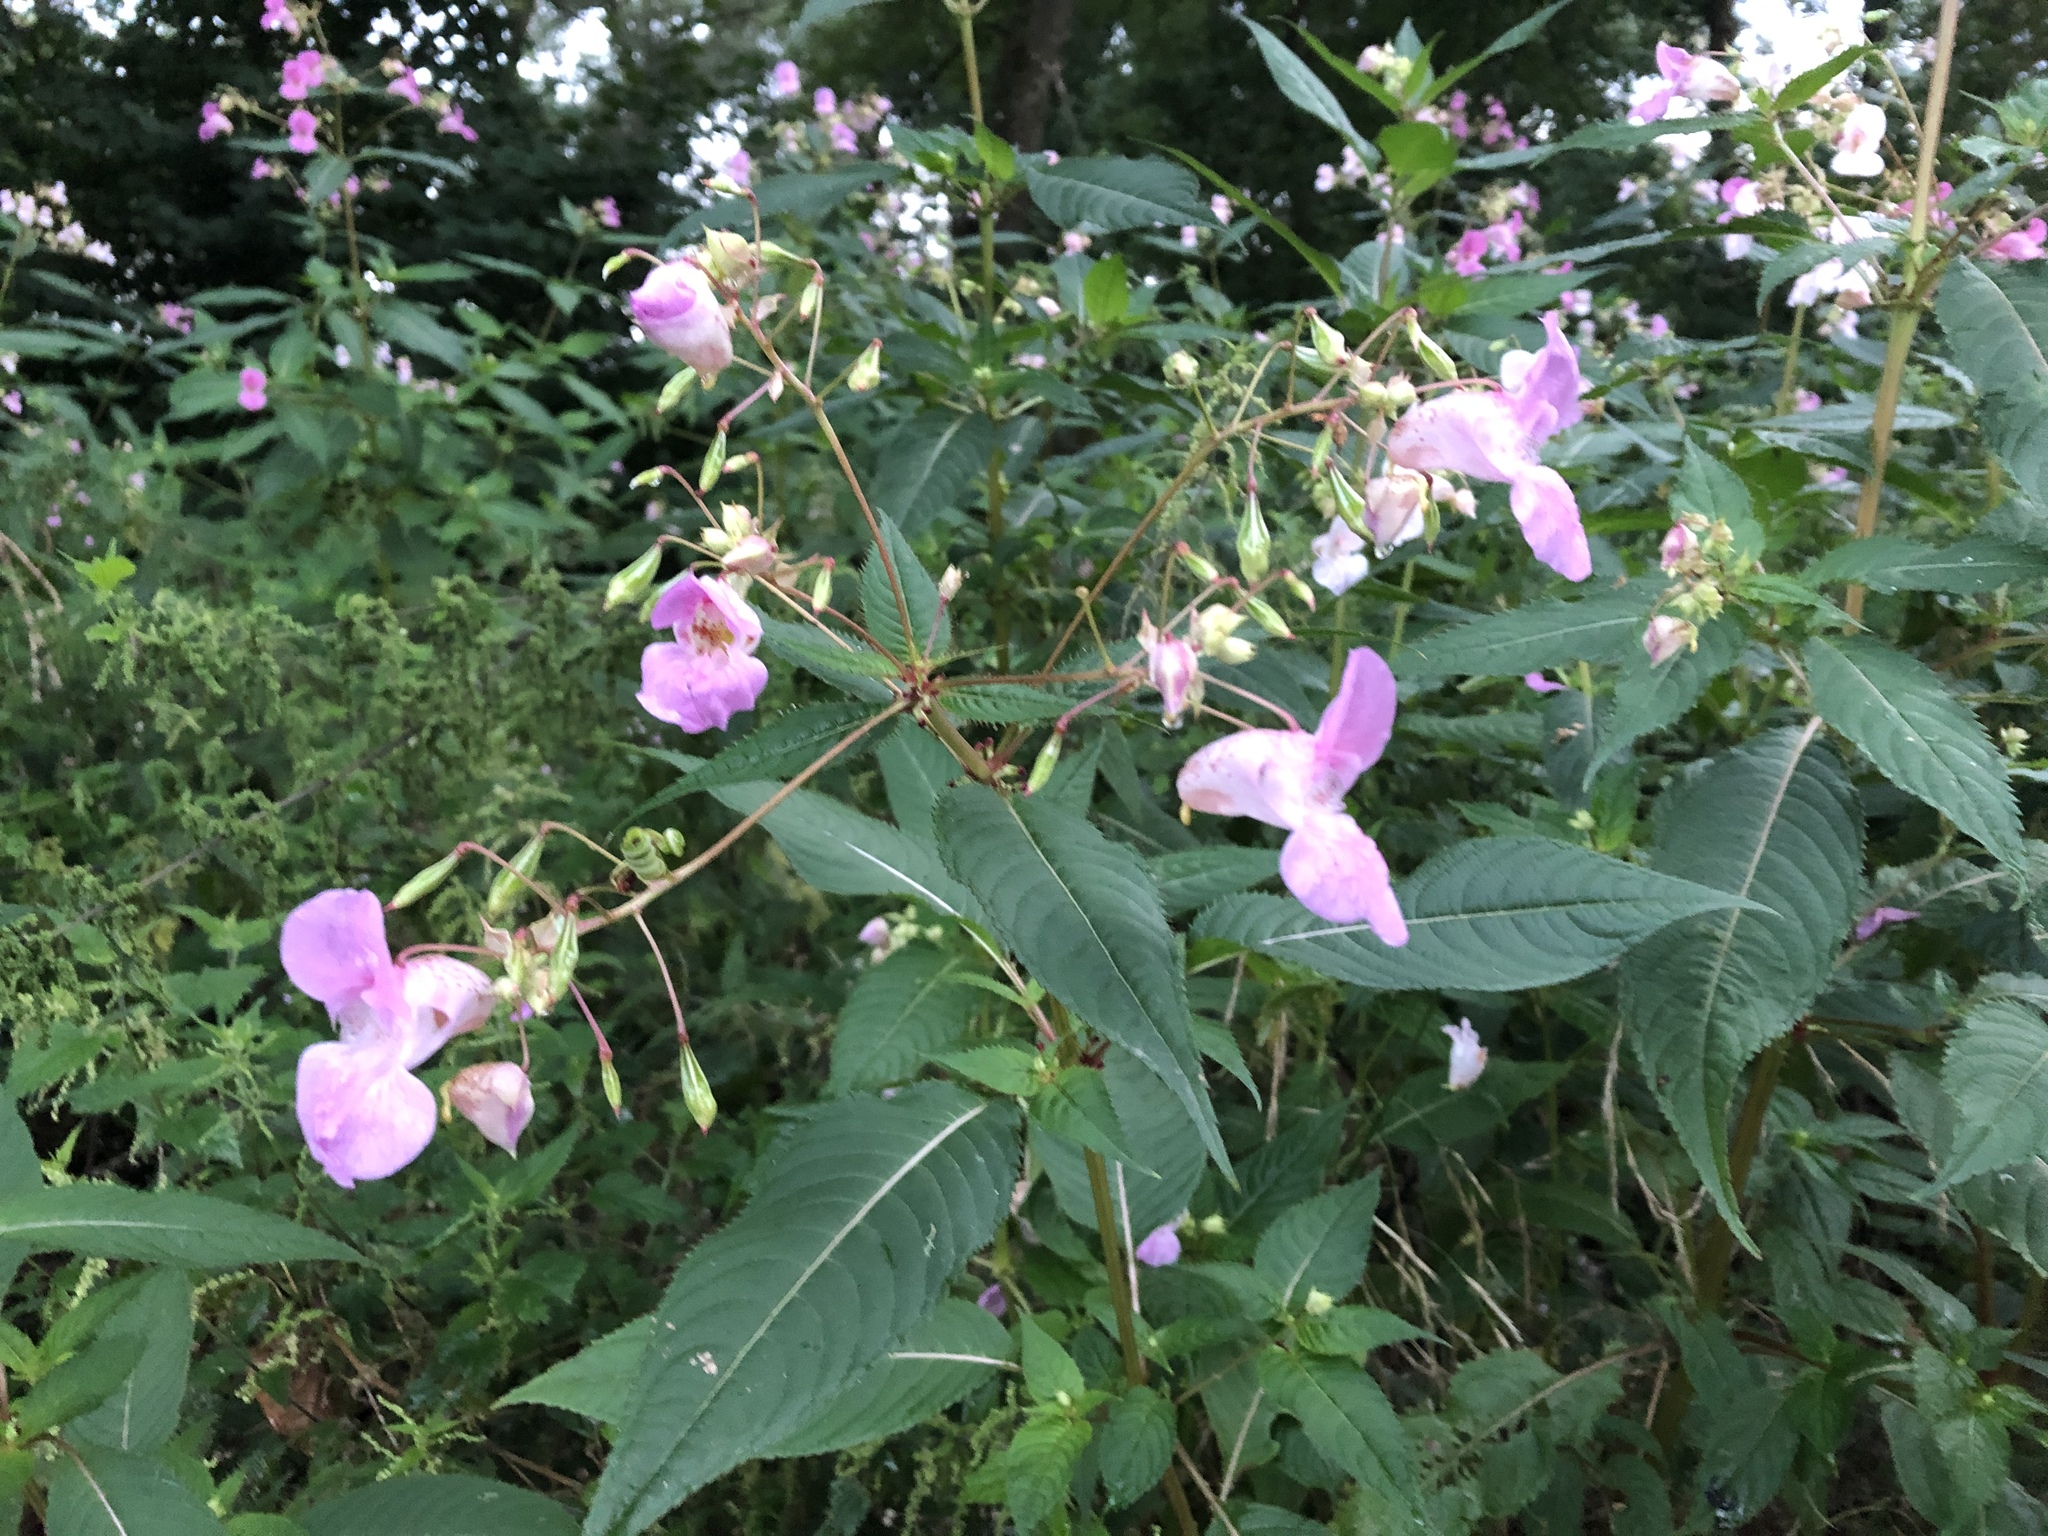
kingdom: Plantae
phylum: Tracheophyta
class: Magnoliopsida
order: Ericales
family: Balsaminaceae
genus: Impatiens
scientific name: Impatiens glandulifera
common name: Himalayan balsam
